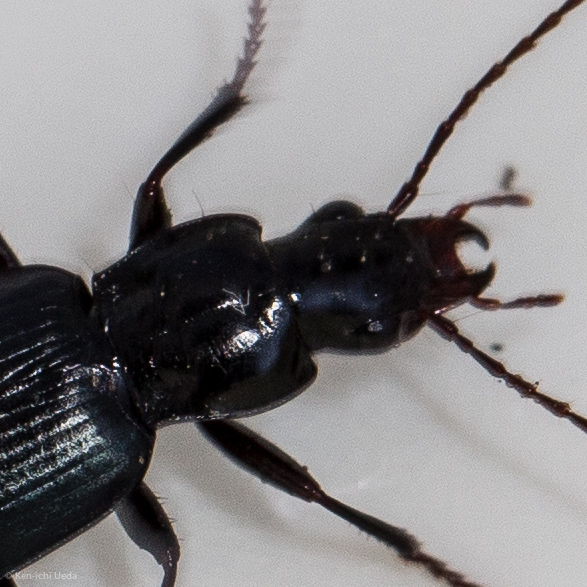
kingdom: Animalia
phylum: Arthropoda
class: Insecta
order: Coleoptera
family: Carabidae
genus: Laemostenus
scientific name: Laemostenus complanatus
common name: Cosmopolitan ground beetle
